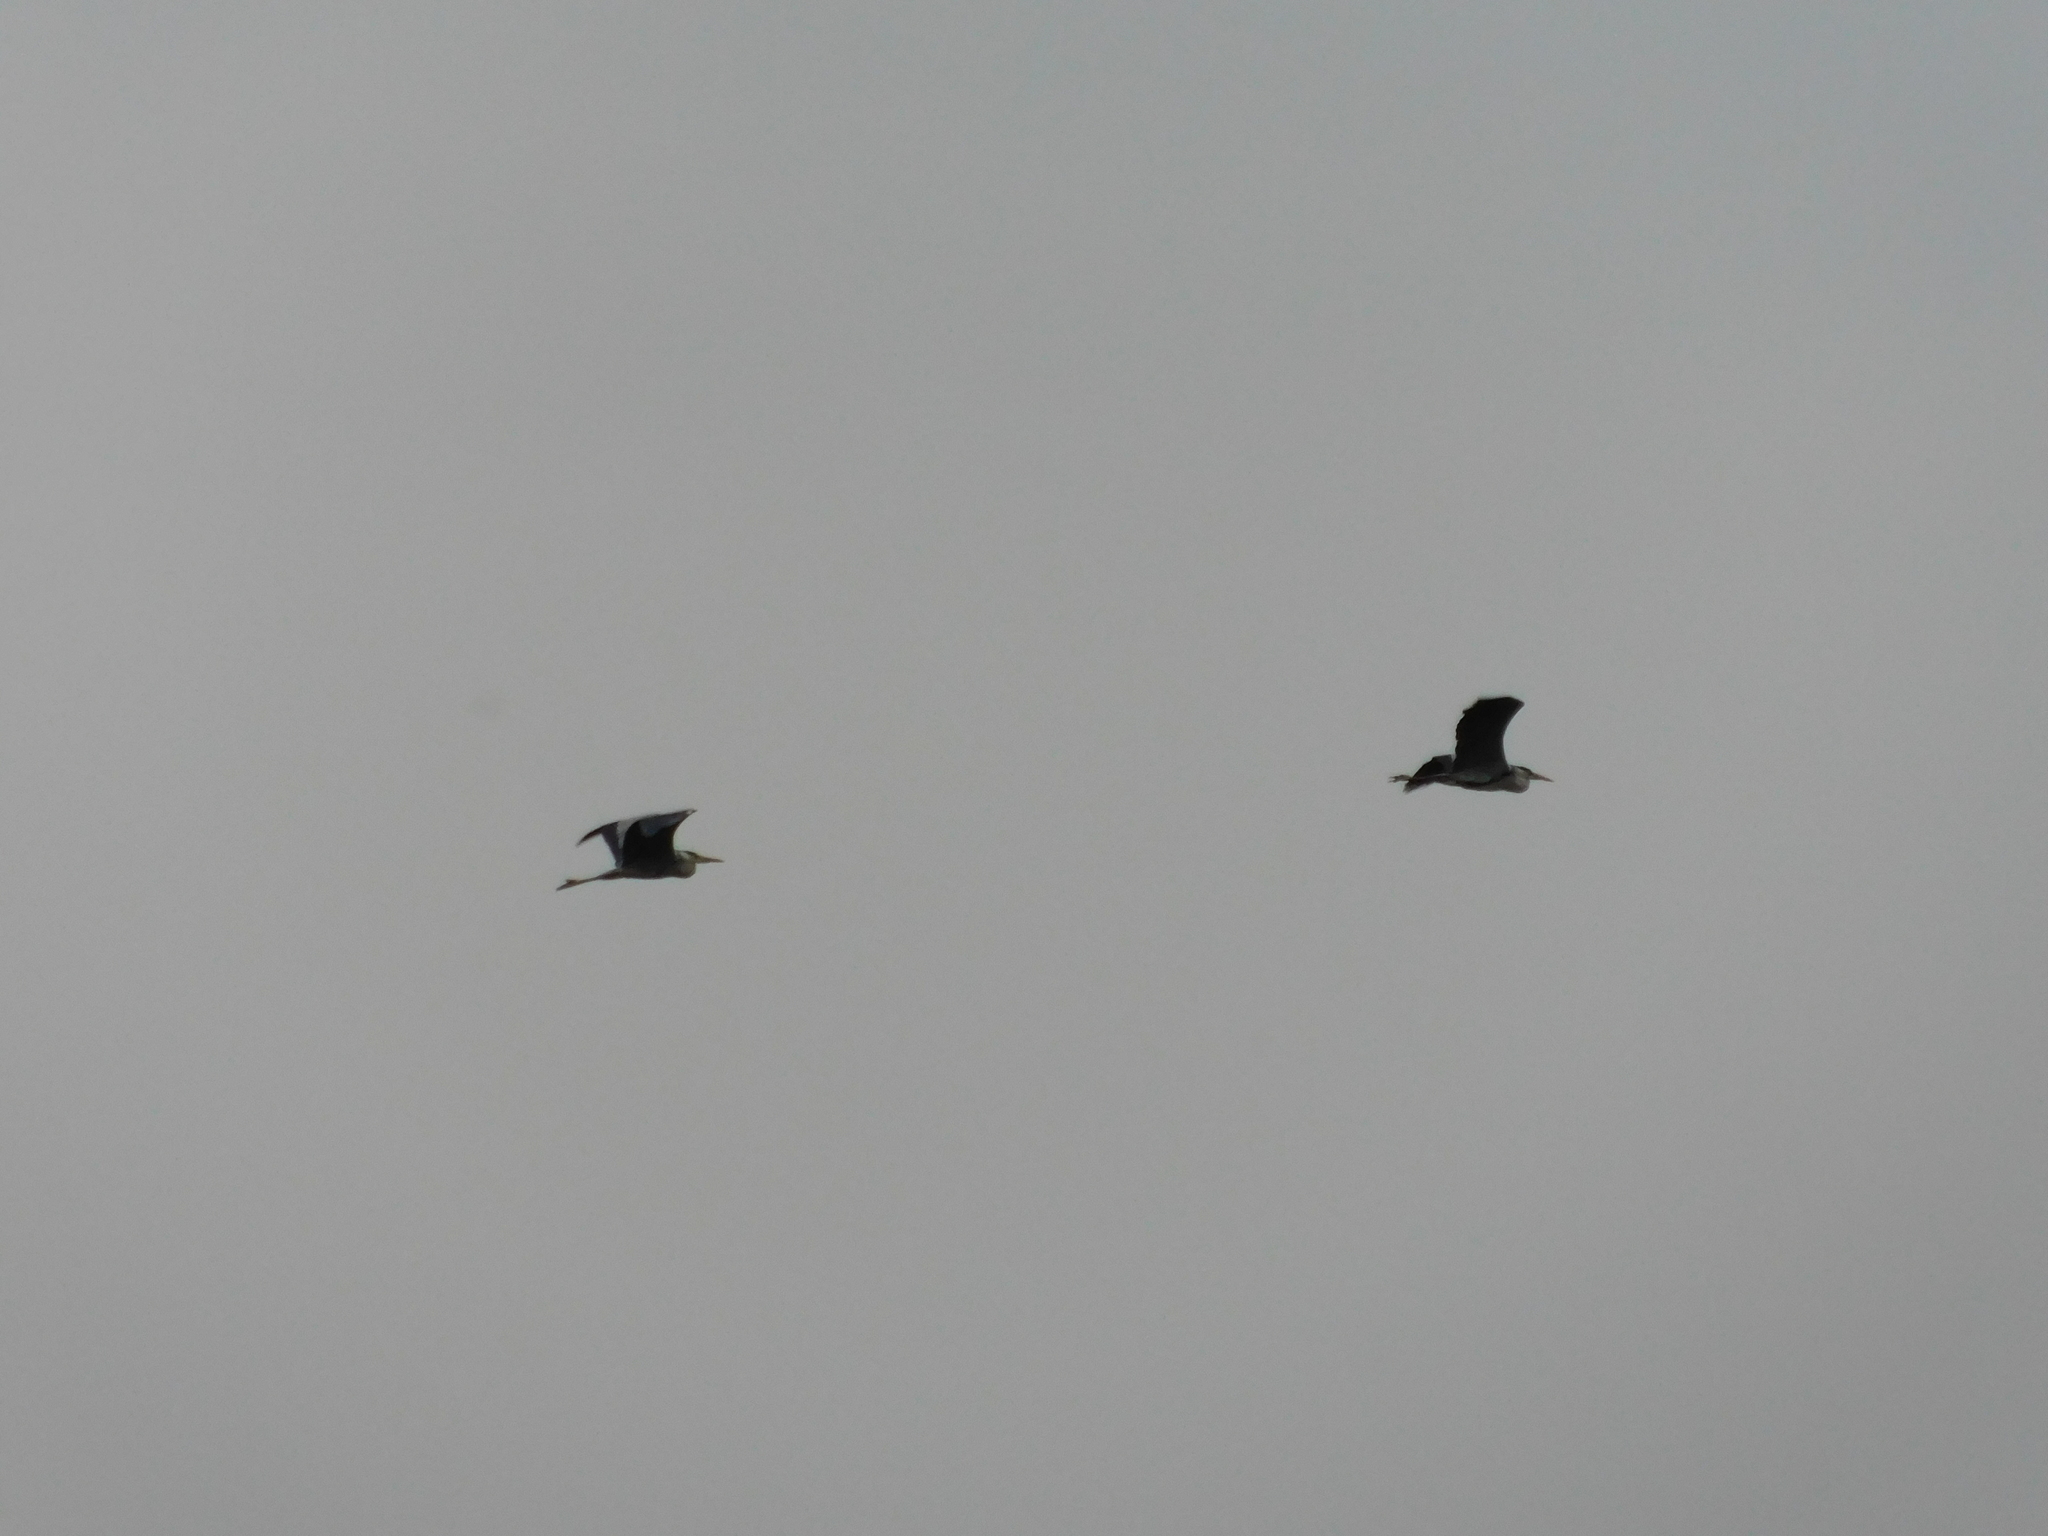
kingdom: Animalia
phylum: Chordata
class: Aves
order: Pelecaniformes
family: Ardeidae
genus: Ardea
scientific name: Ardea cinerea
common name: Grey heron
